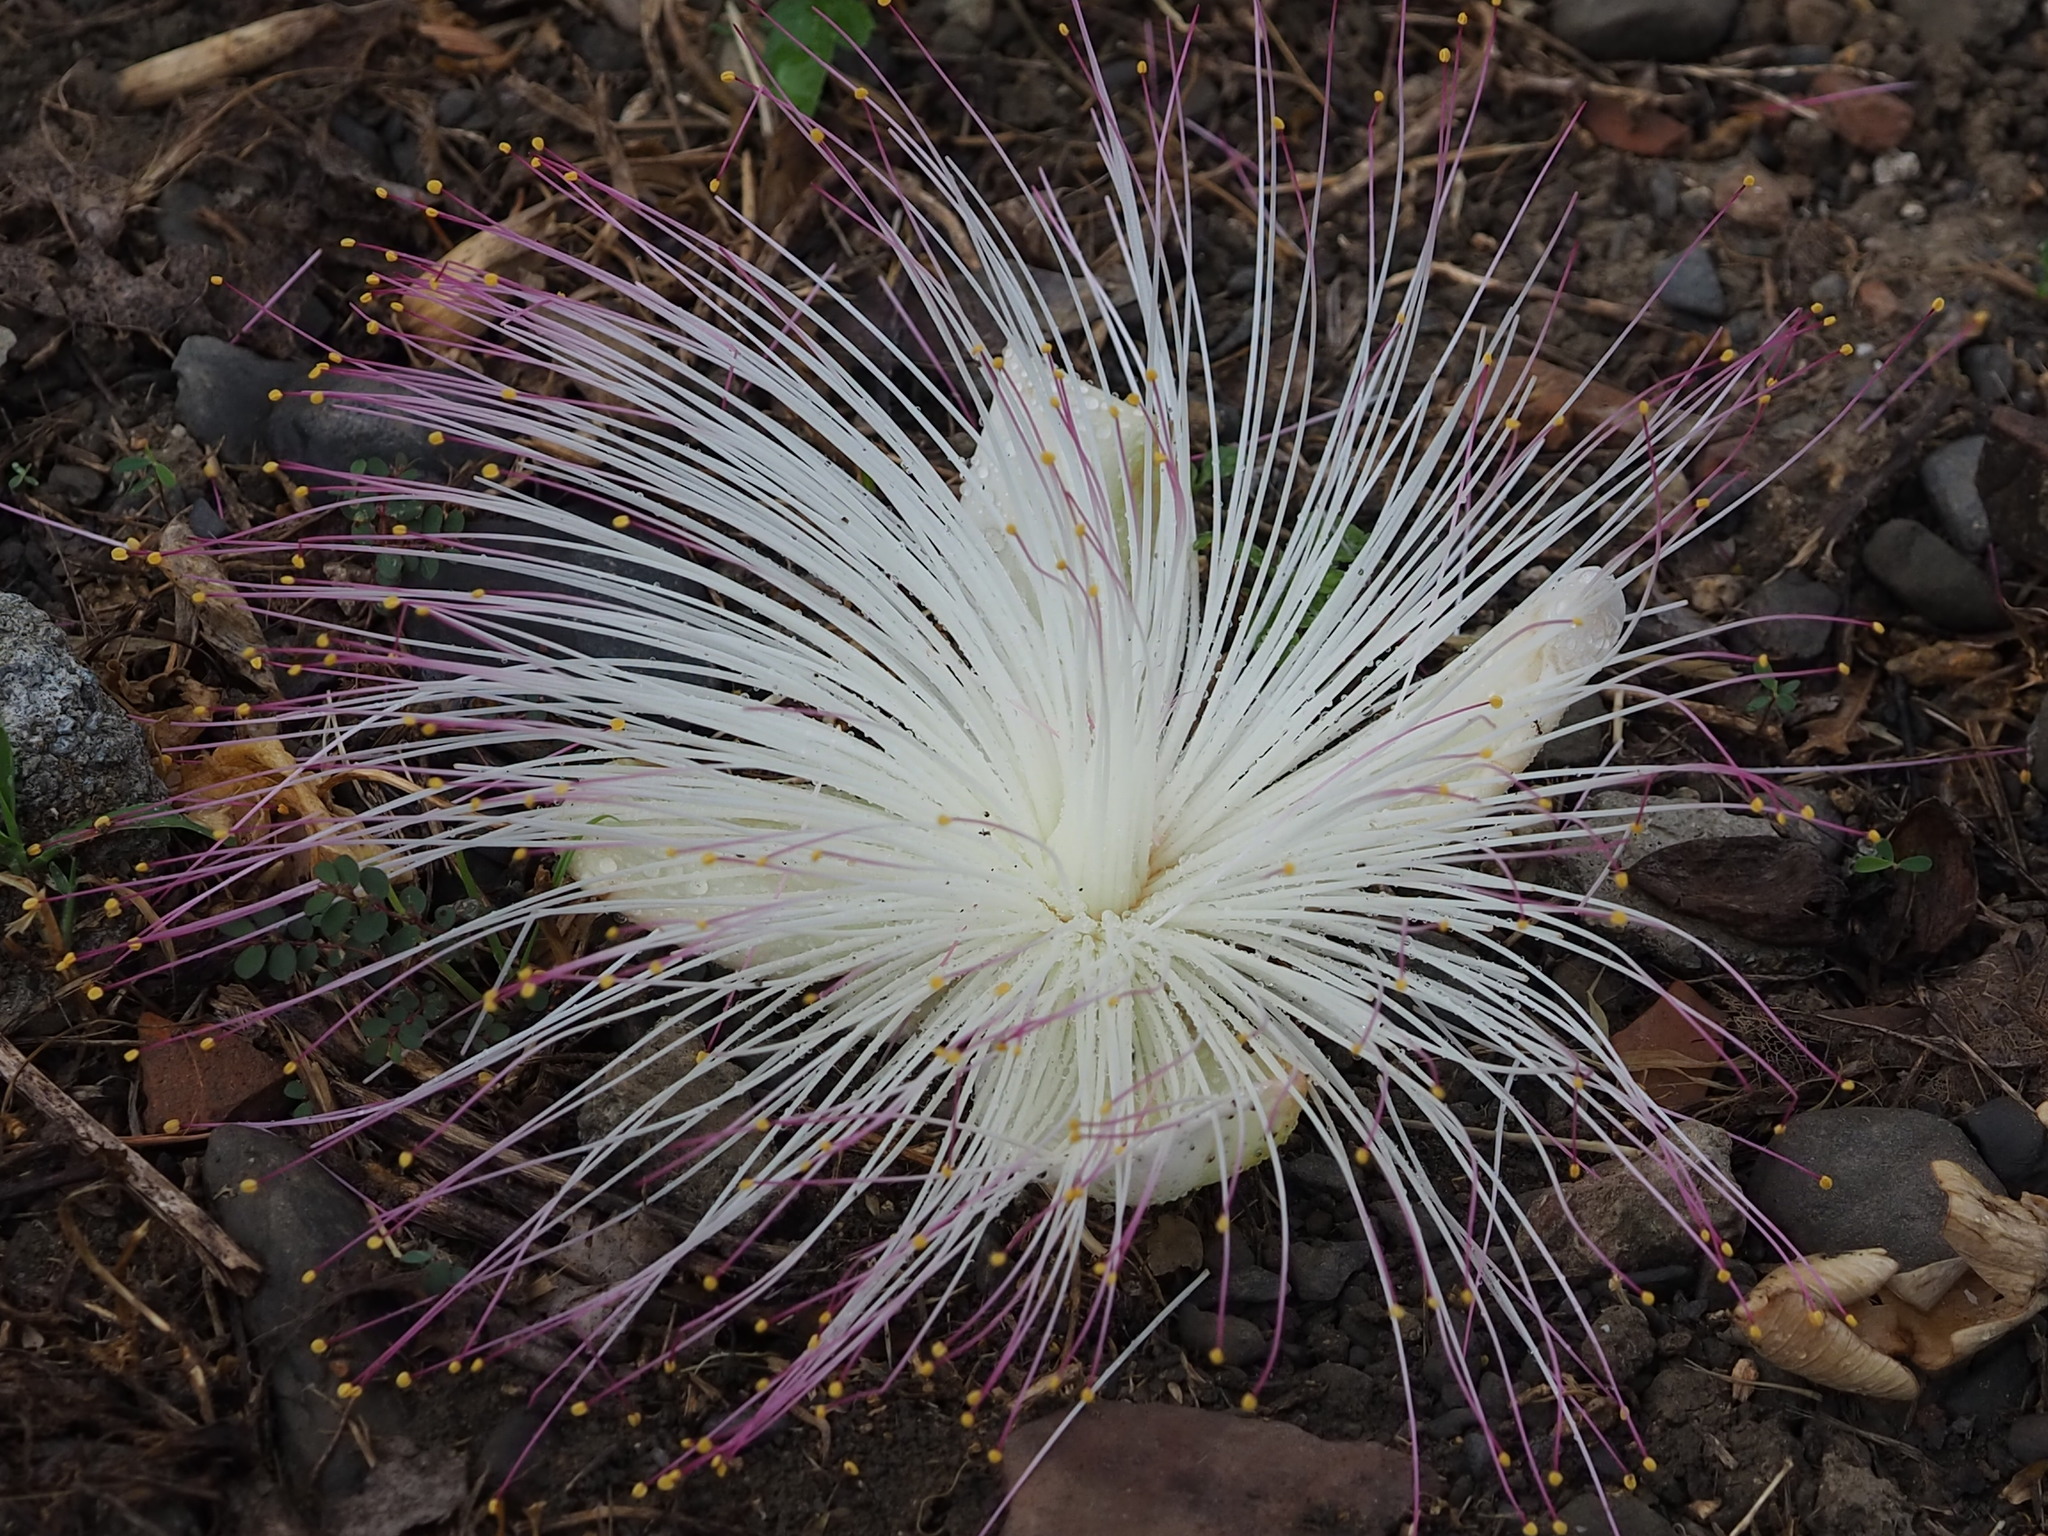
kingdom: Plantae
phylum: Tracheophyta
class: Magnoliopsida
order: Ericales
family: Lecythidaceae
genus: Barringtonia
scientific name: Barringtonia asiatica
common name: Mango-pine
